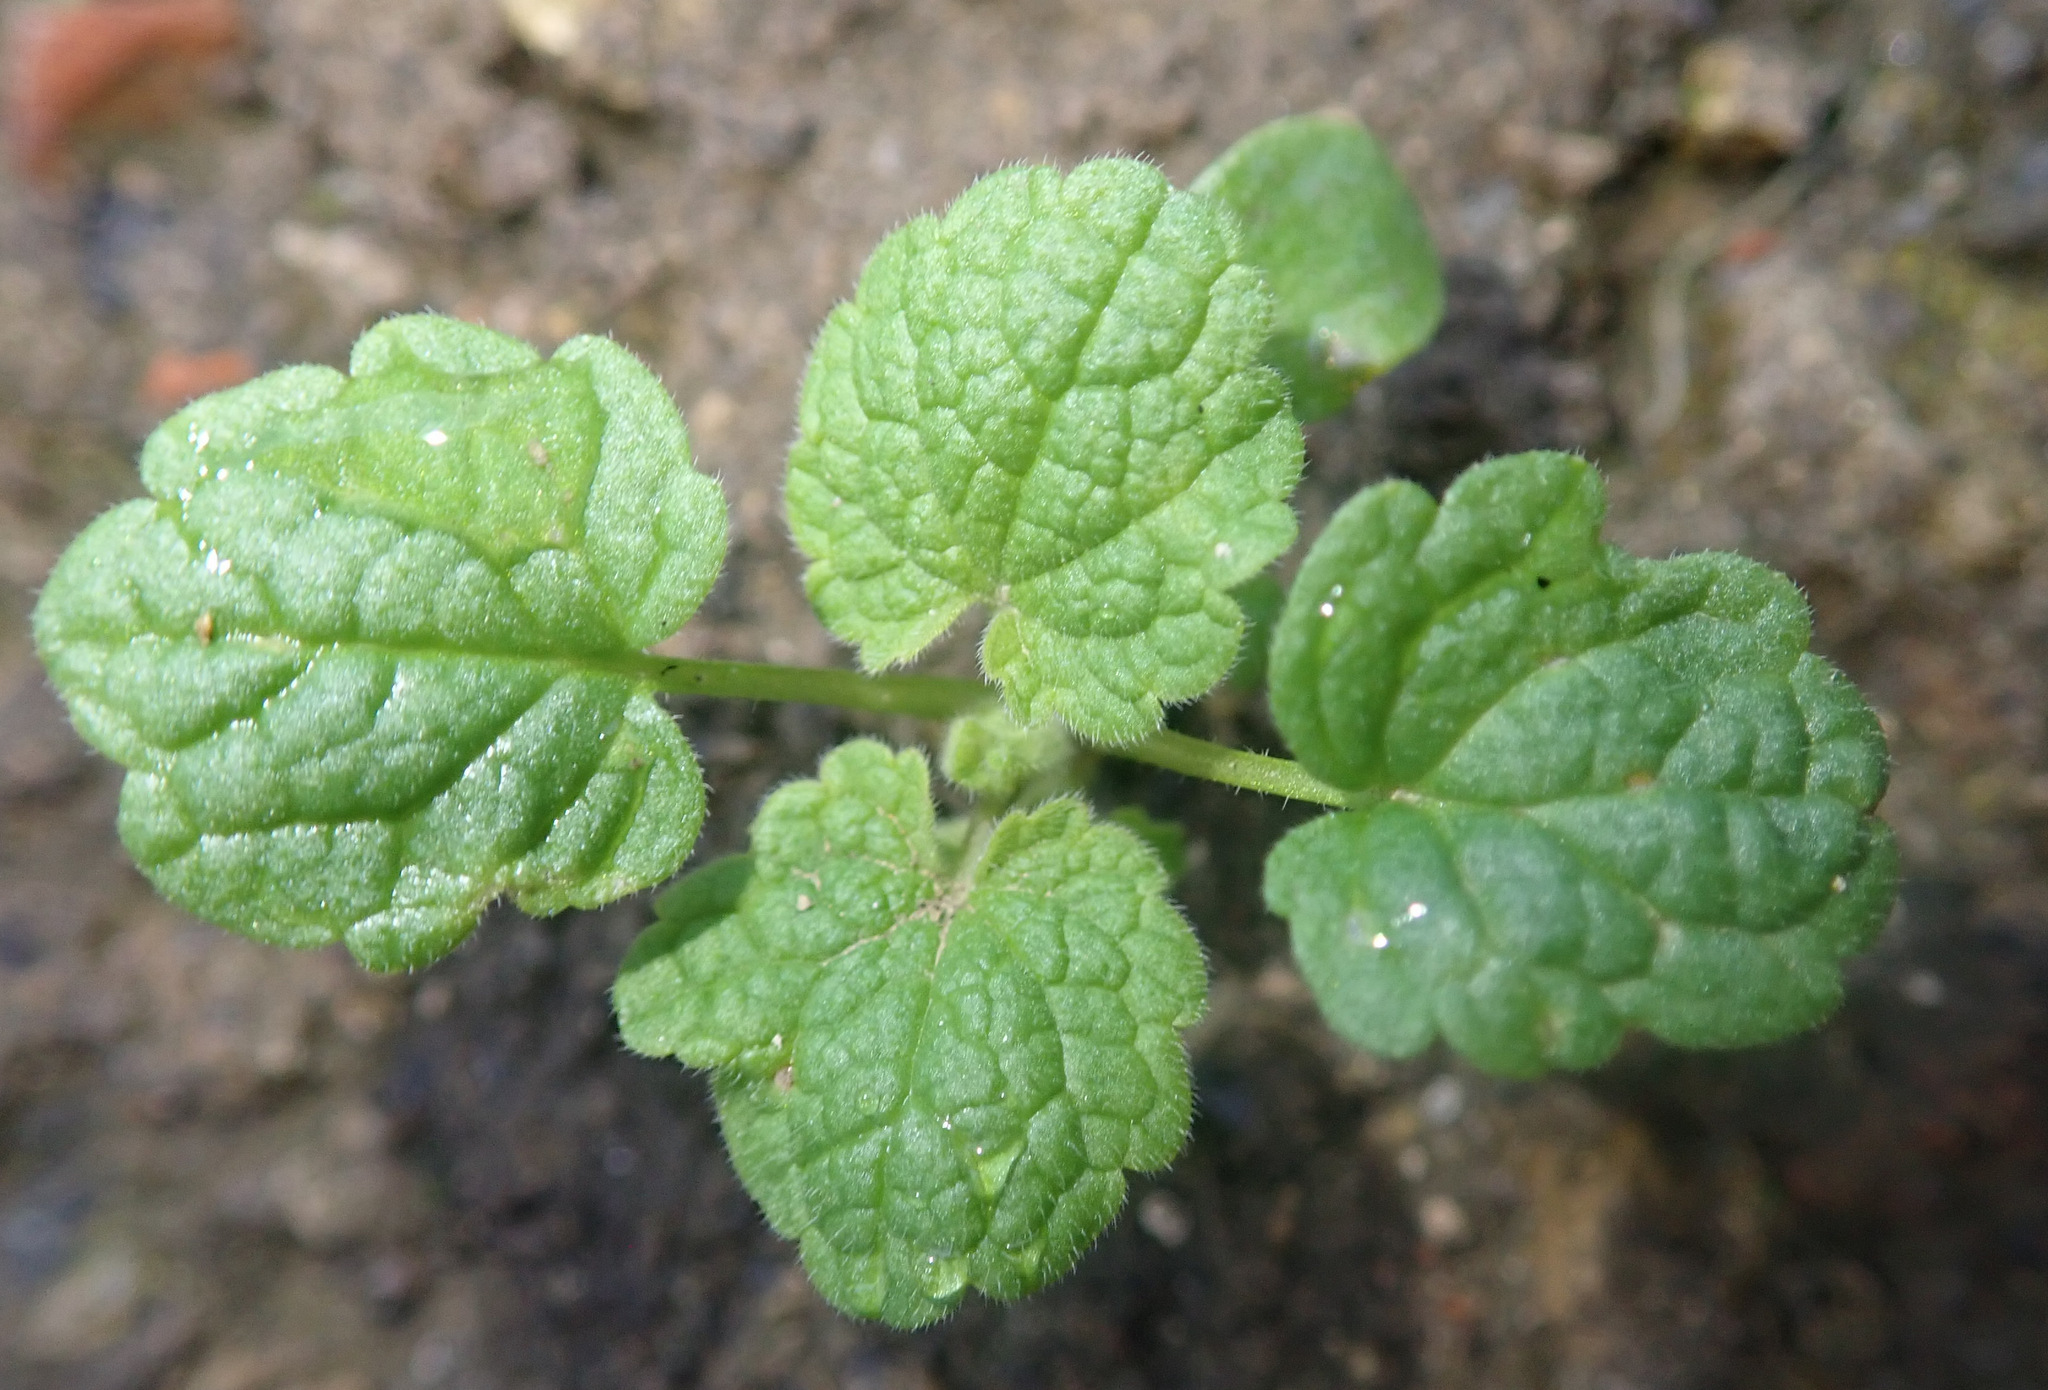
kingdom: Plantae
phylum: Tracheophyta
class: Magnoliopsida
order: Lamiales
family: Lamiaceae
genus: Lamium
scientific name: Lamium purpureum
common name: Red dead-nettle
